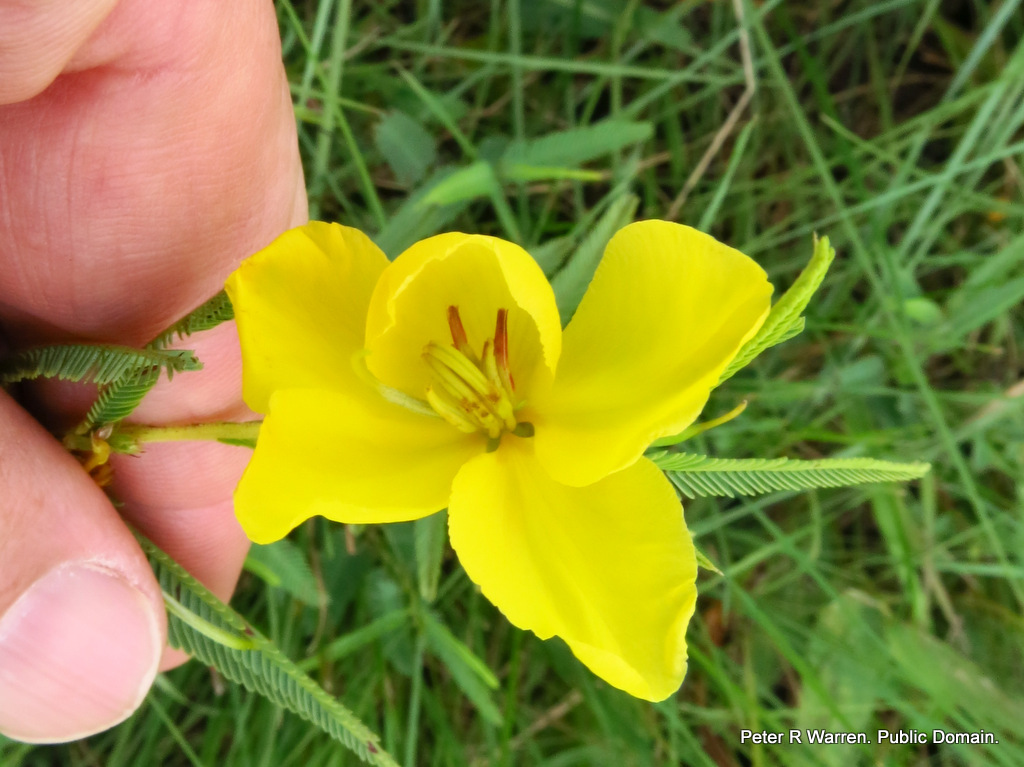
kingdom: Plantae
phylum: Tracheophyta
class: Magnoliopsida
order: Fabales
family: Fabaceae
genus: Chamaecrista
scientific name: Chamaecrista mimosoides
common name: Fish-bone cassia
